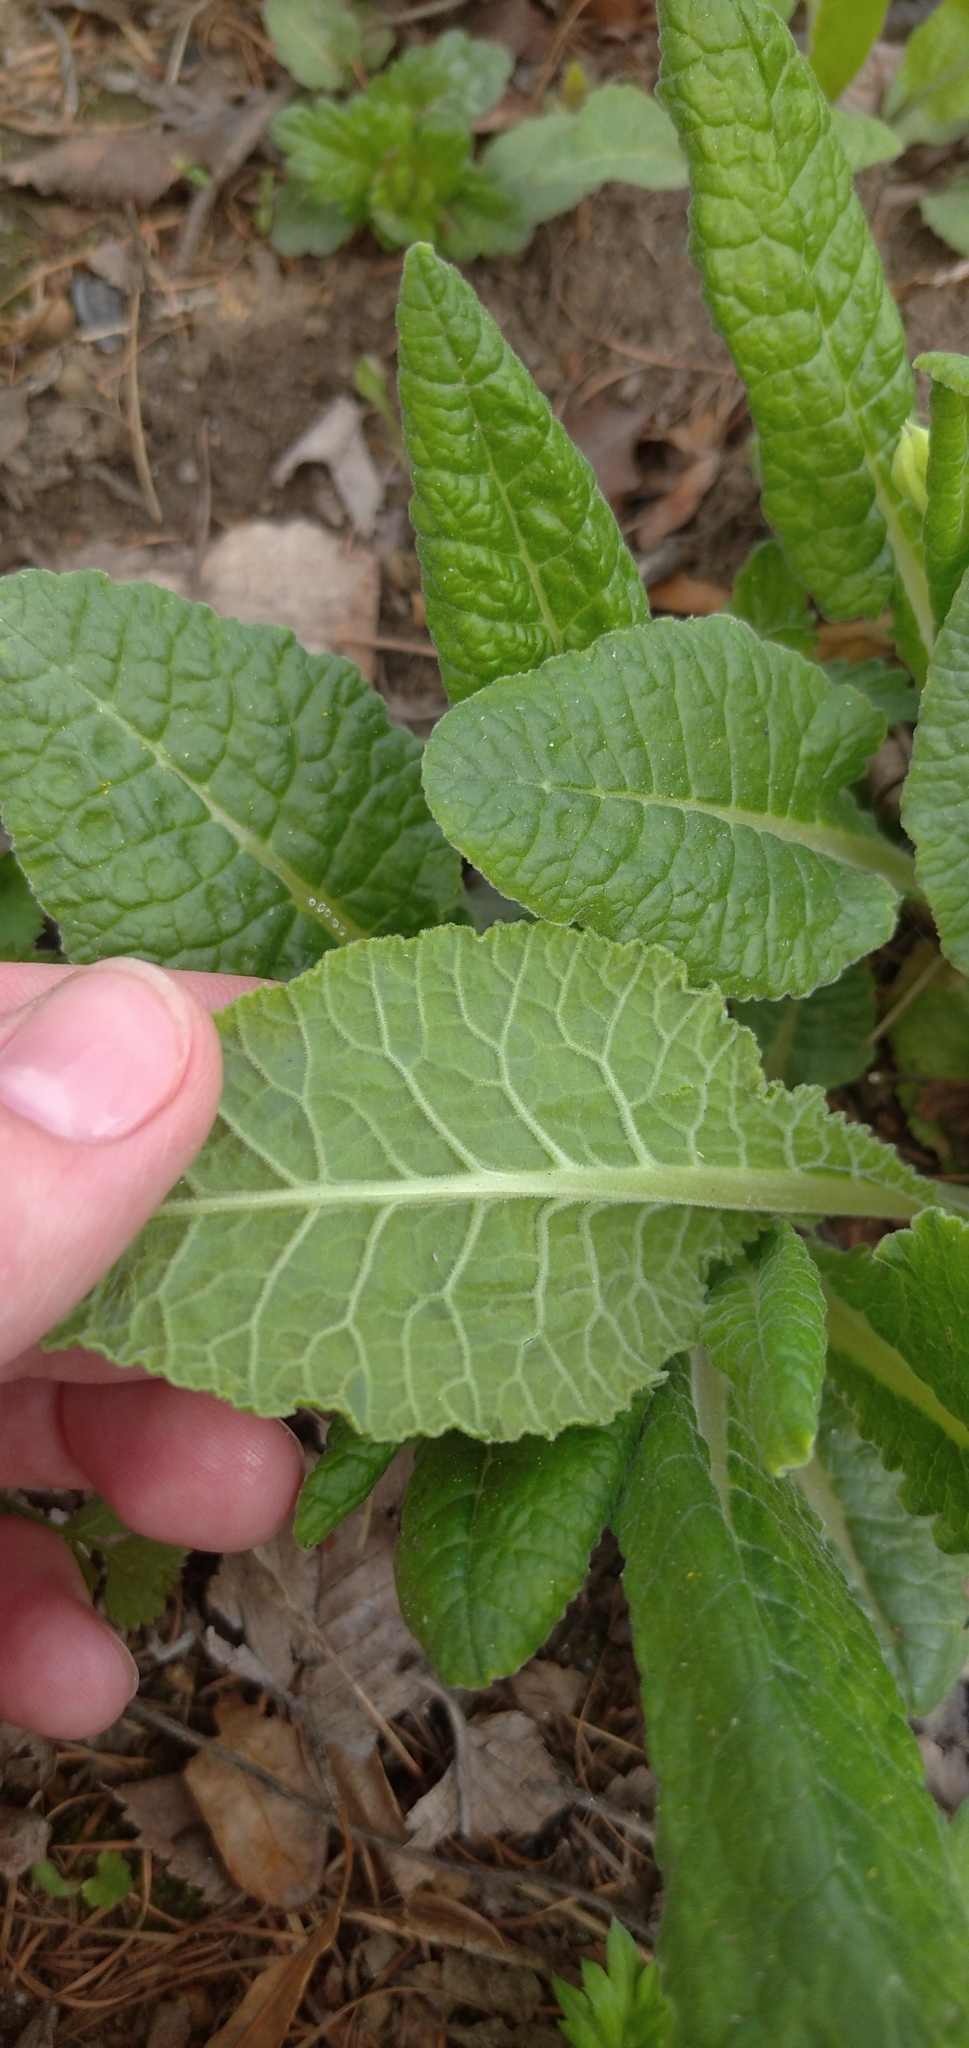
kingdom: Plantae
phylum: Tracheophyta
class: Magnoliopsida
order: Ericales
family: Primulaceae
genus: Primula
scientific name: Primula veris
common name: Cowslip
